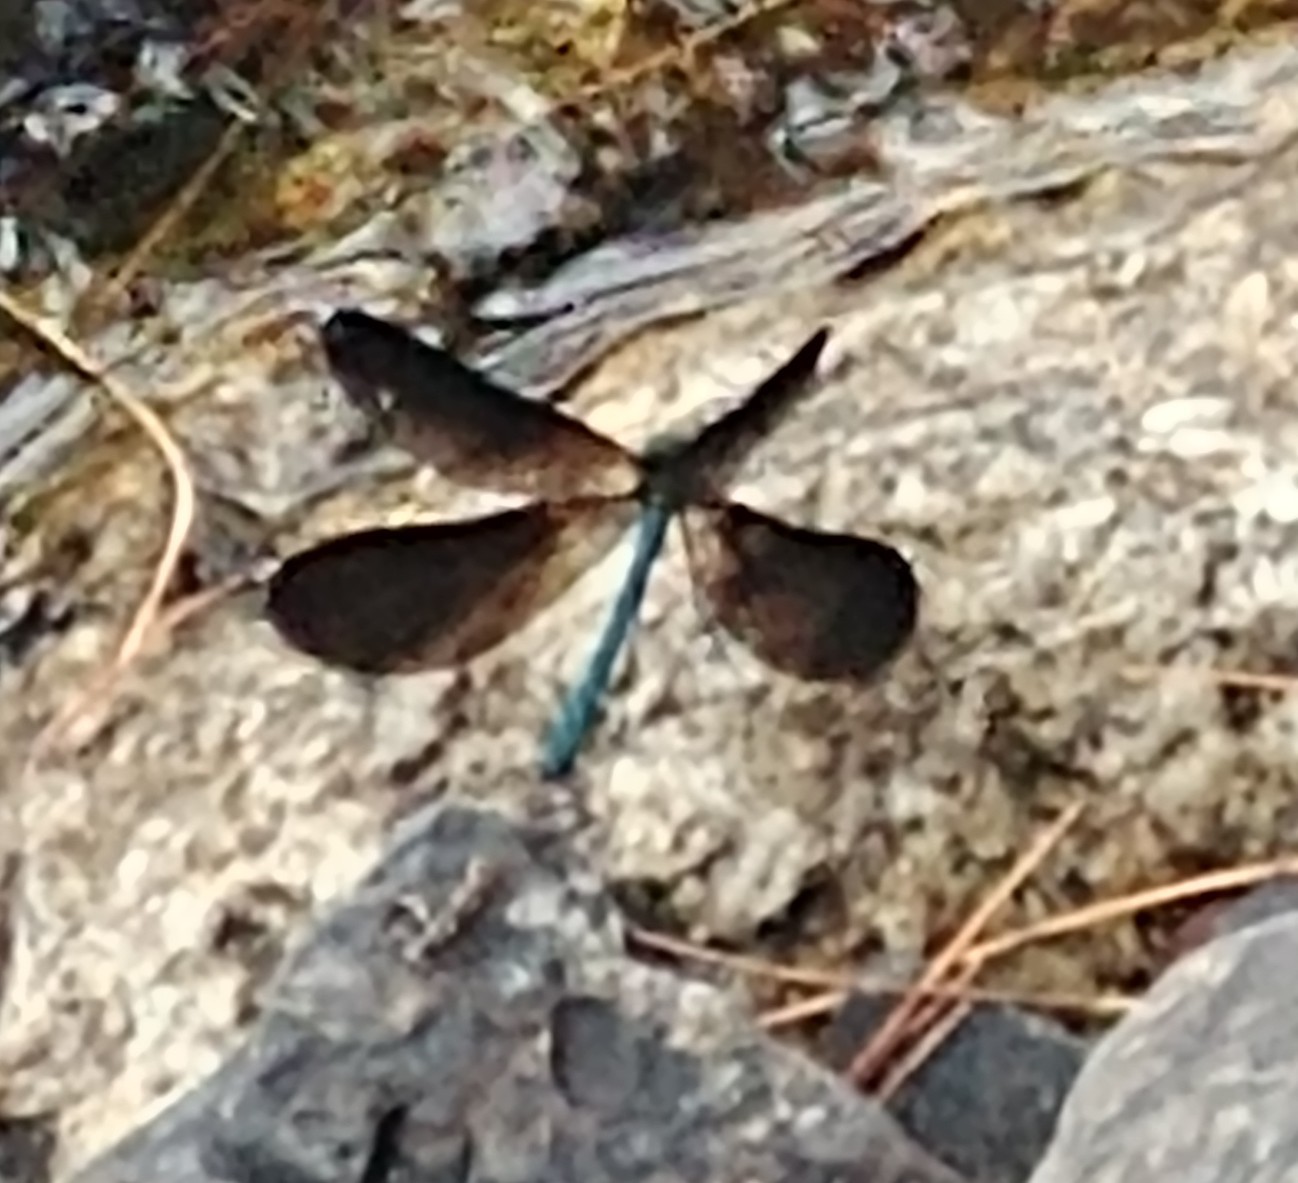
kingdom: Animalia
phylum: Arthropoda
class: Insecta
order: Odonata
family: Calopterygidae
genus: Calopteryx
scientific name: Calopteryx maculata
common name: Ebony jewelwing
